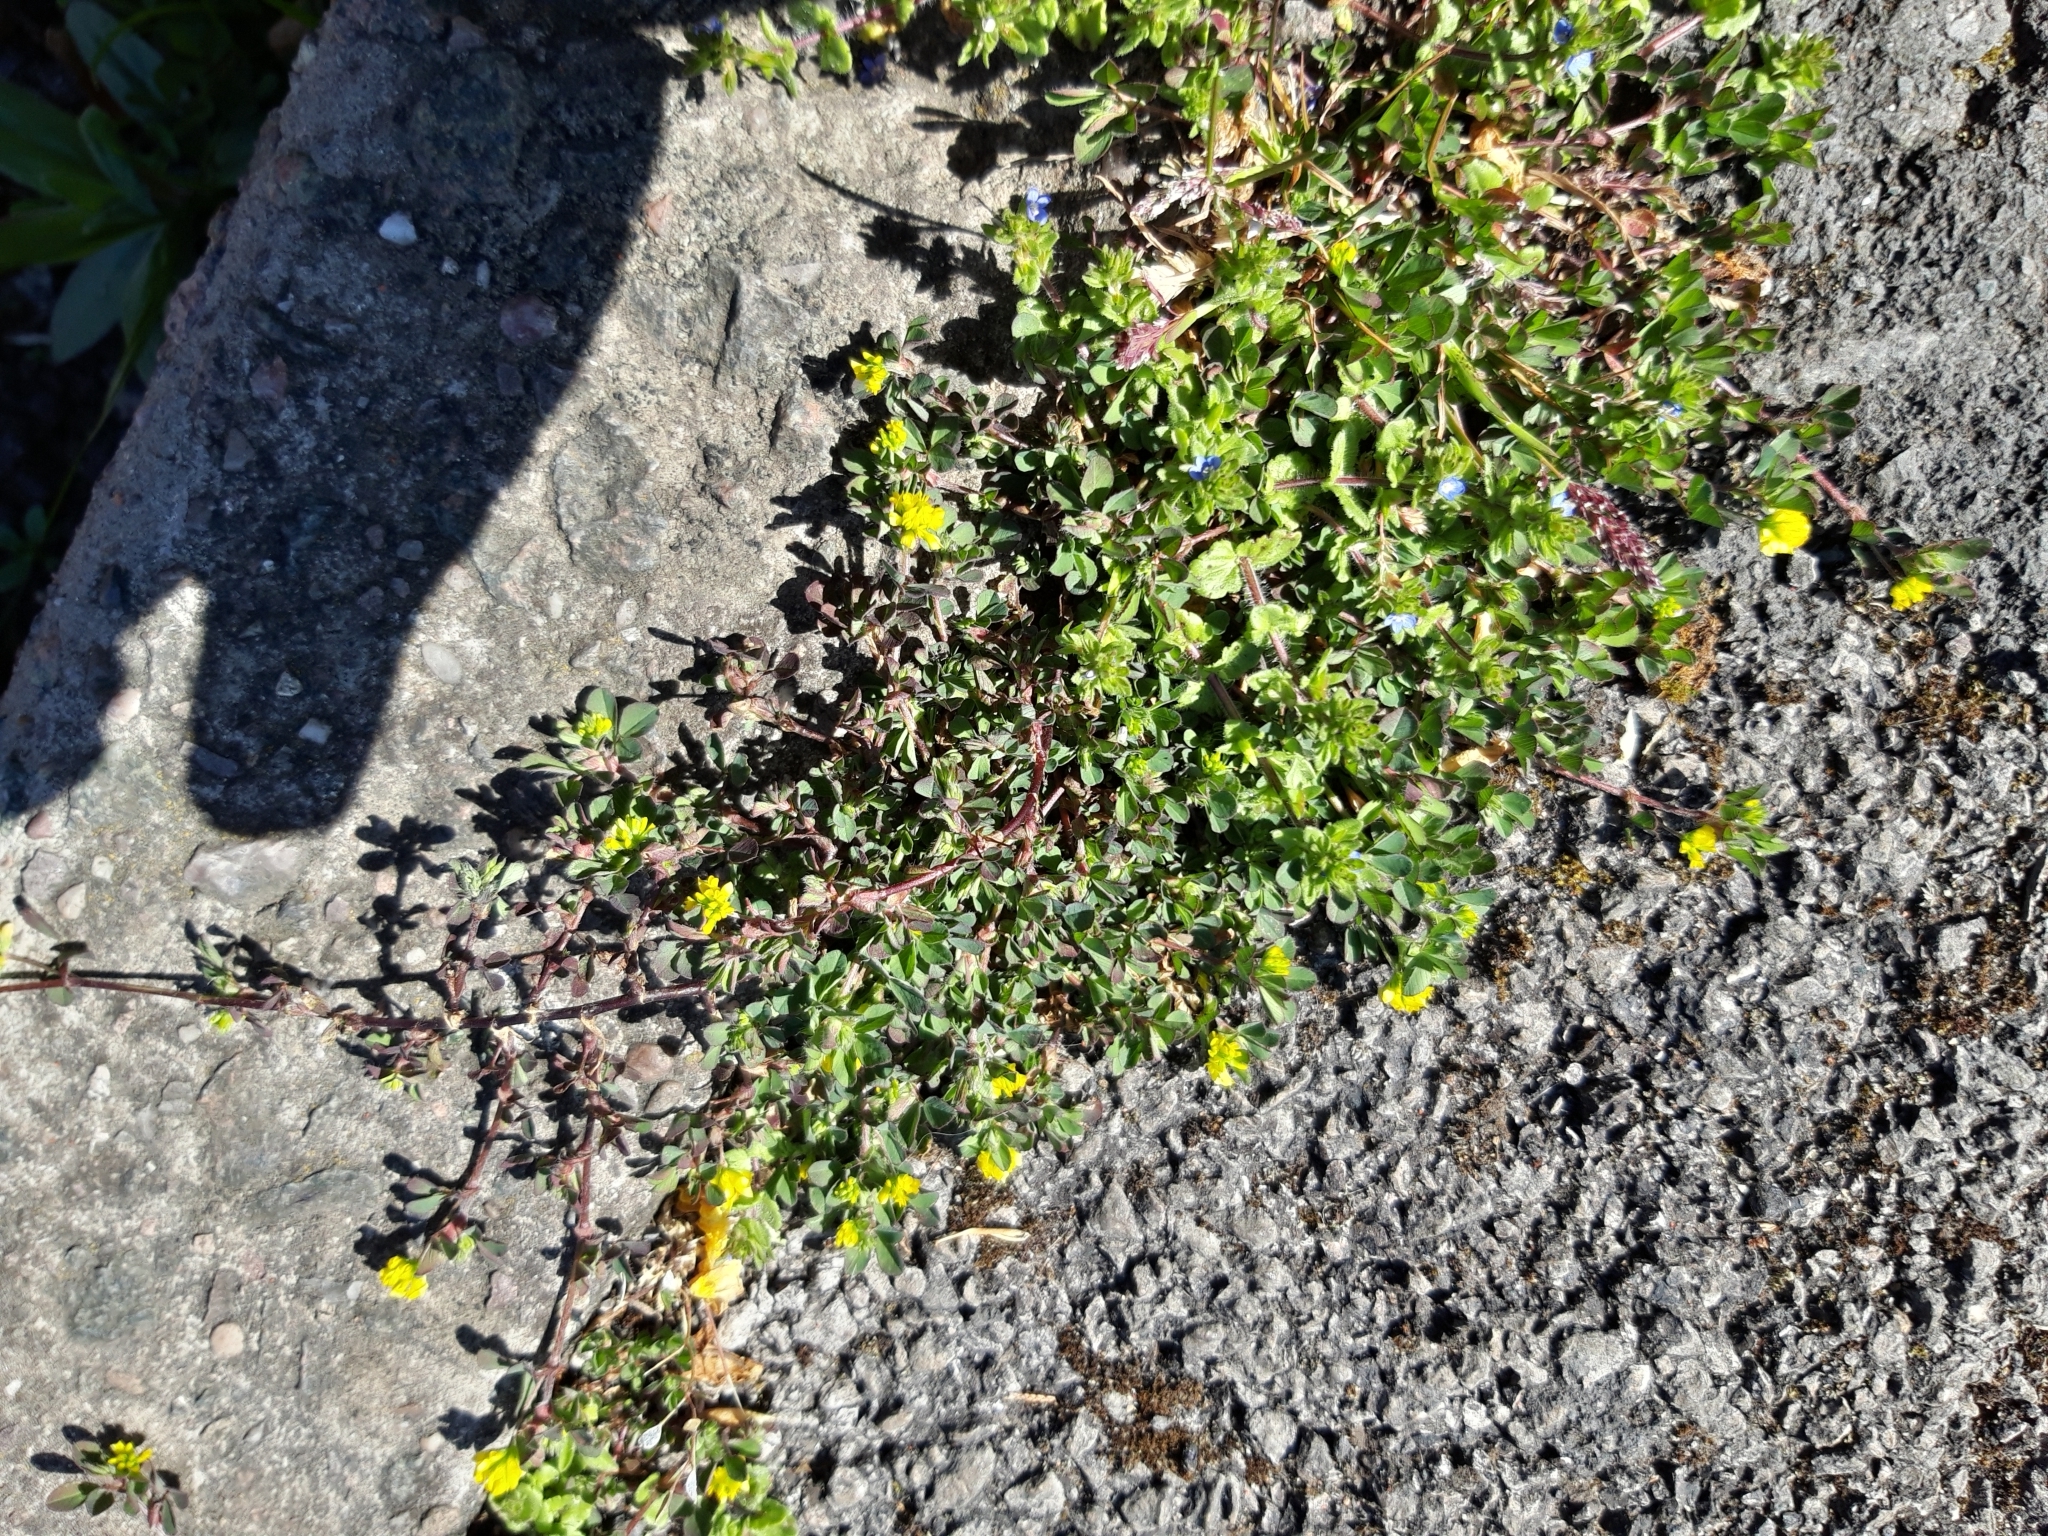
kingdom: Plantae
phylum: Tracheophyta
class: Magnoliopsida
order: Fabales
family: Fabaceae
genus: Medicago
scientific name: Medicago lupulina
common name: Black medick
